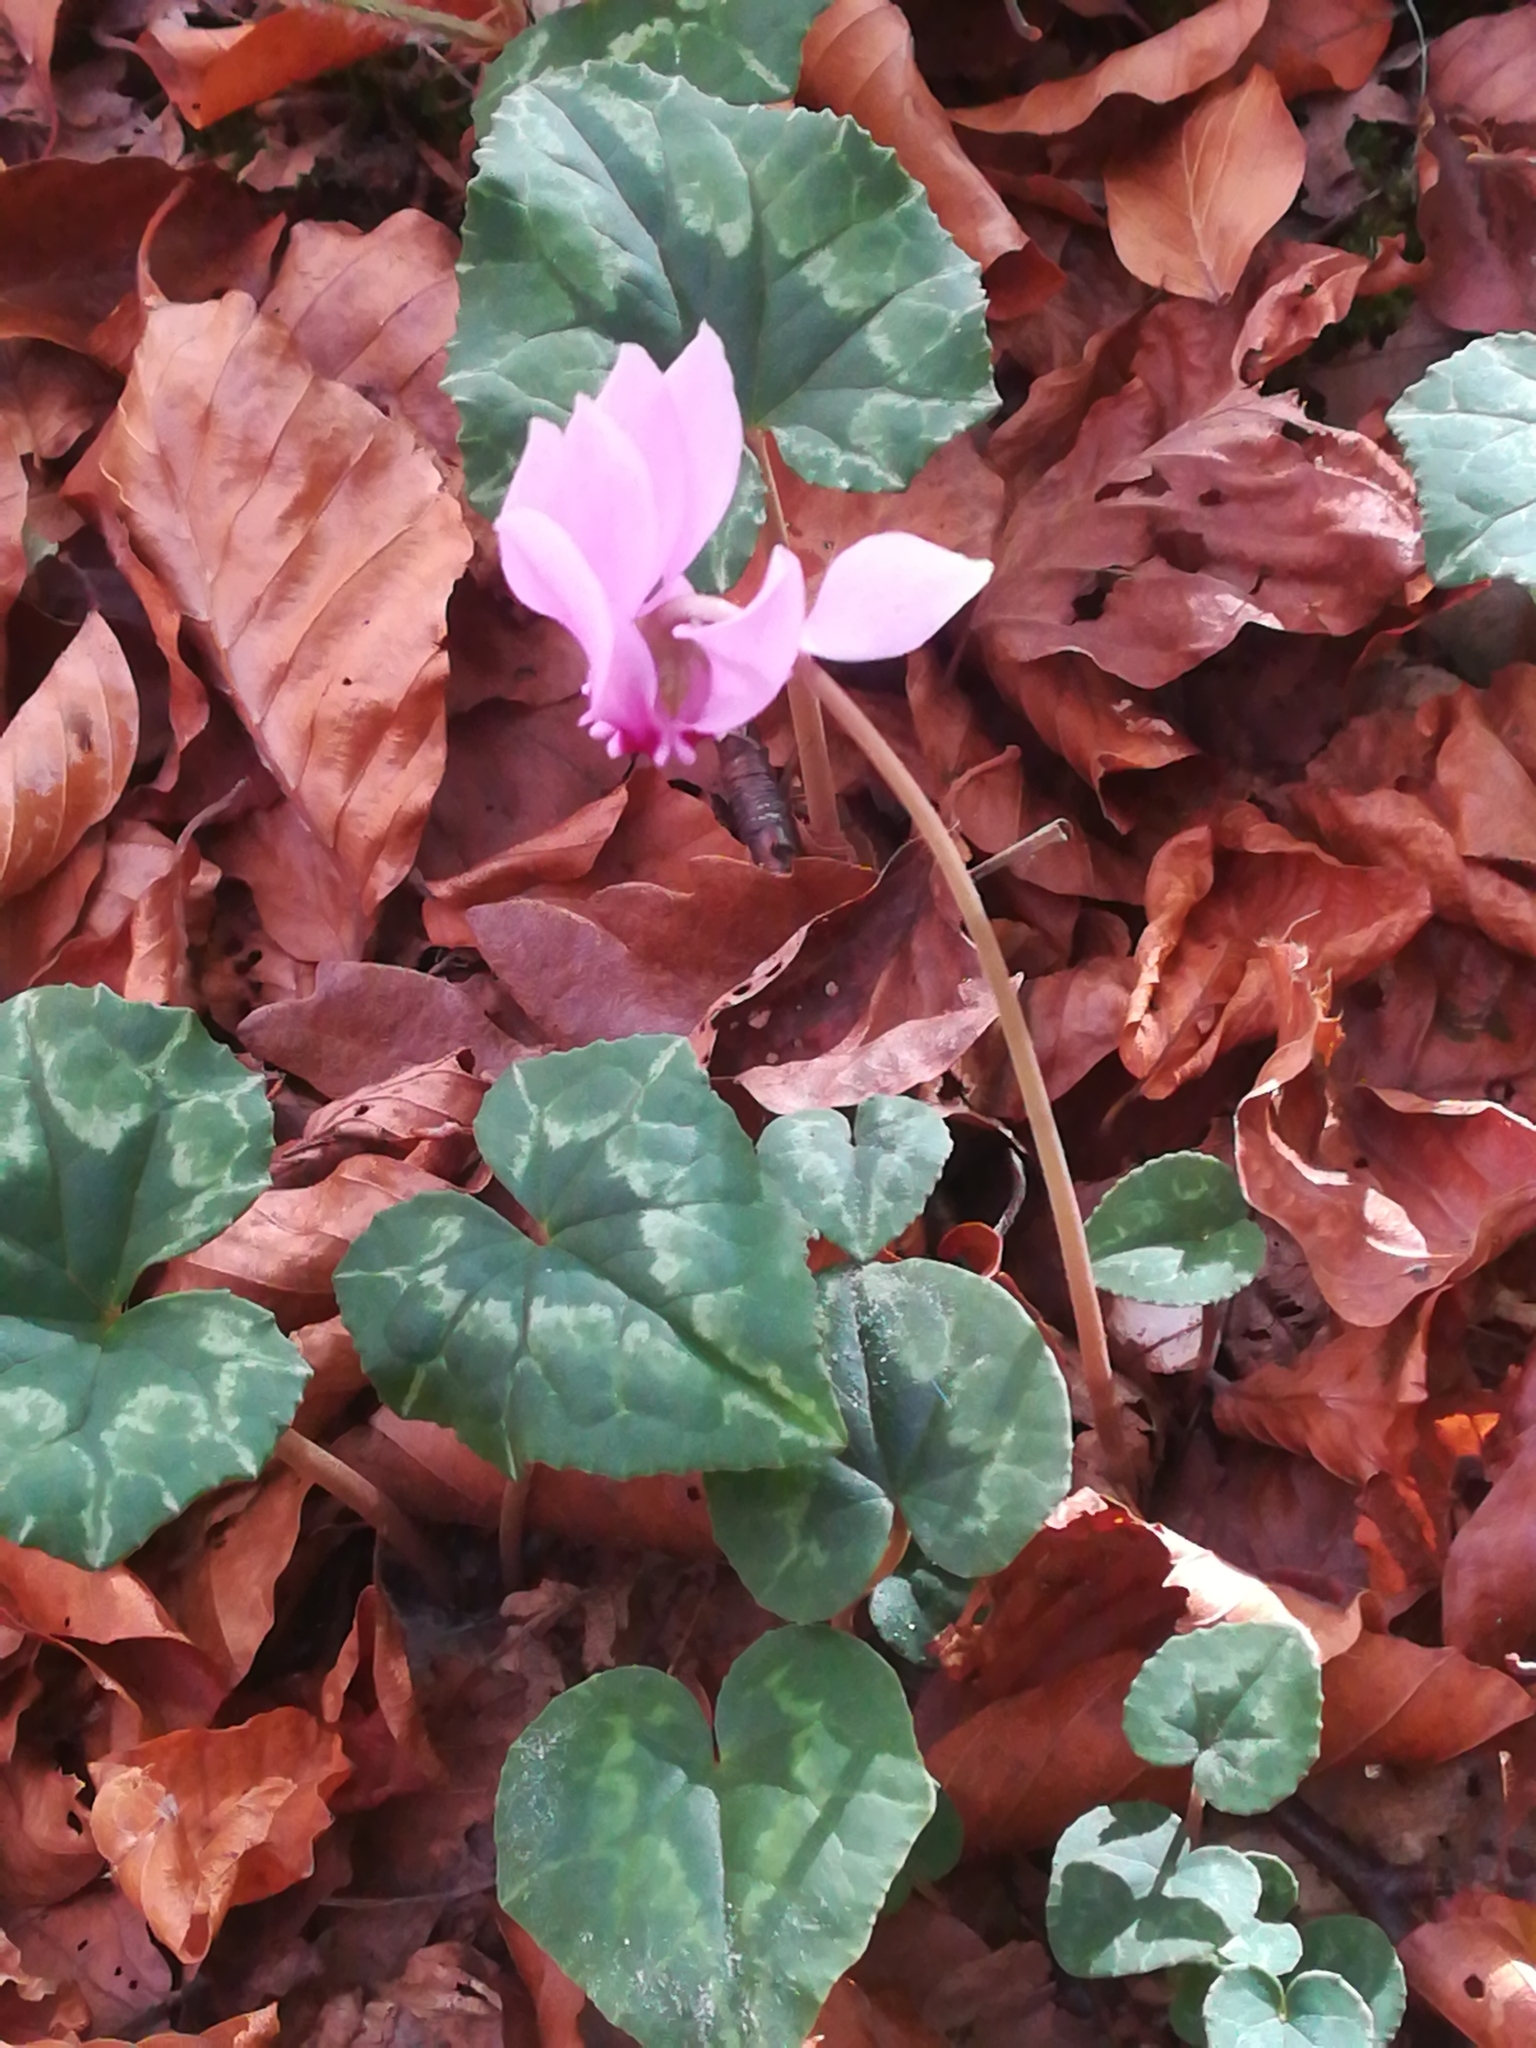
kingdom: Plantae
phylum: Tracheophyta
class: Magnoliopsida
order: Ericales
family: Primulaceae
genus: Cyclamen
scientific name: Cyclamen hederifolium
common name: Sowbread
